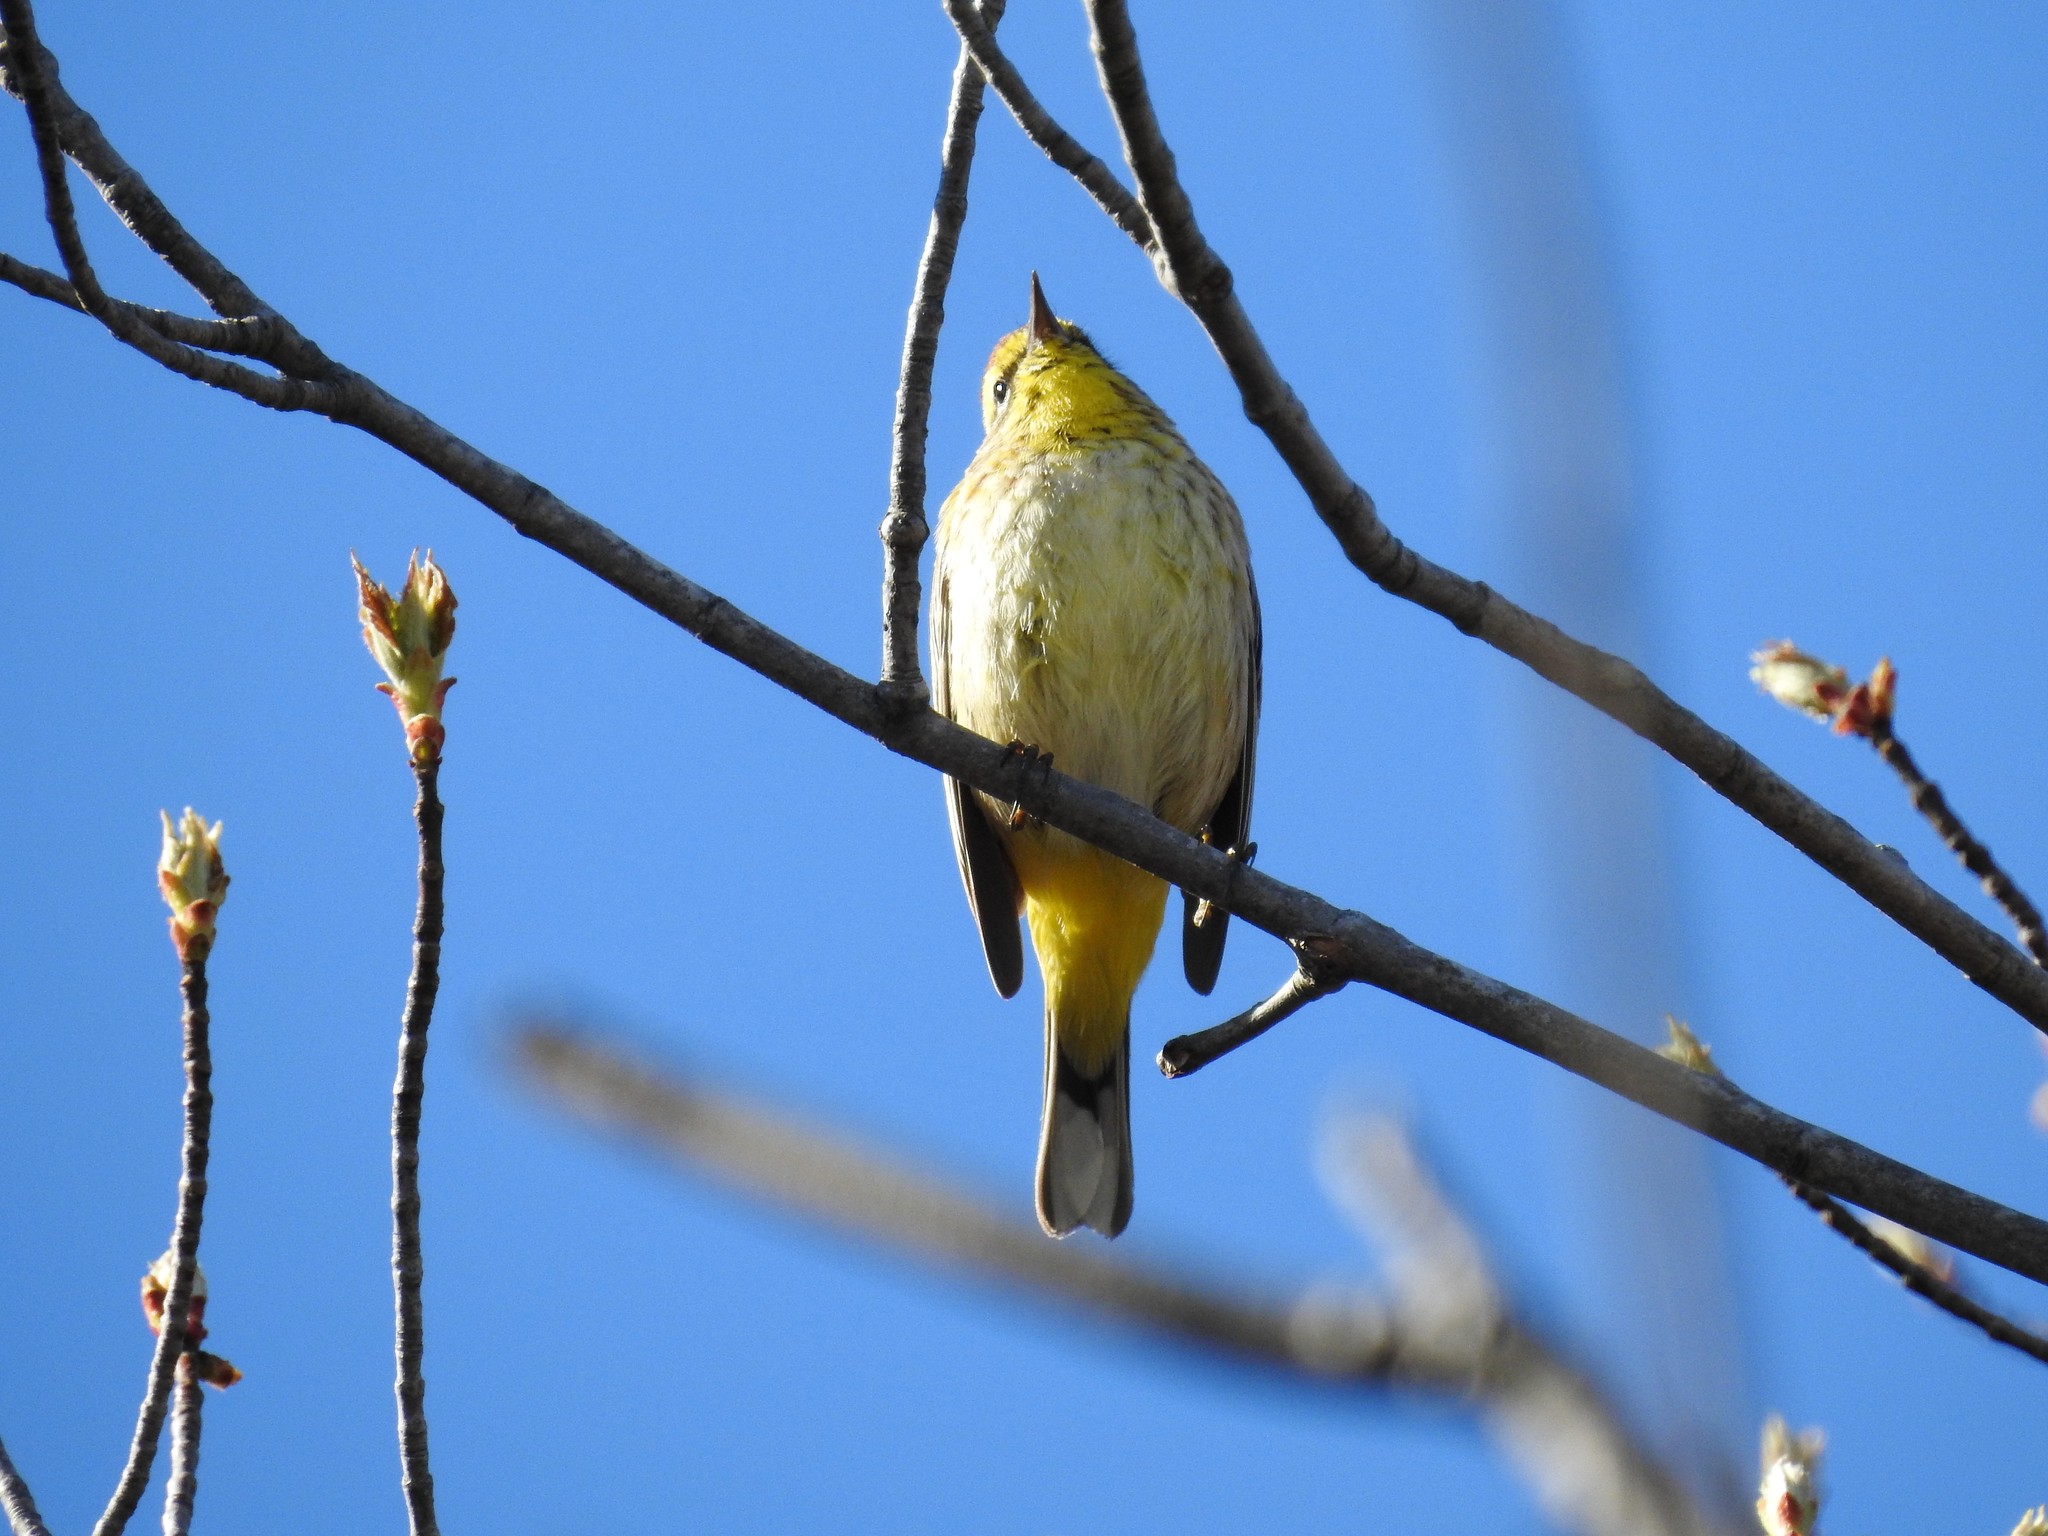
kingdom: Animalia
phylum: Chordata
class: Aves
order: Passeriformes
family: Parulidae
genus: Setophaga
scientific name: Setophaga palmarum
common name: Palm warbler
